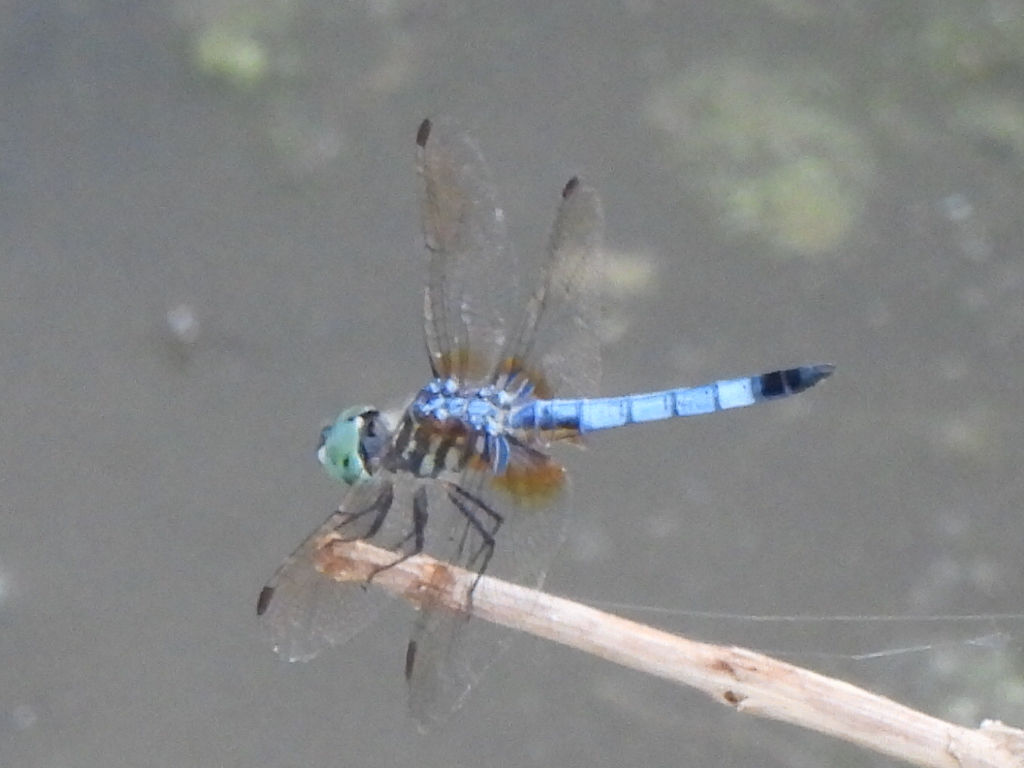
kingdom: Animalia
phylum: Arthropoda
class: Insecta
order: Odonata
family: Libellulidae
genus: Pachydiplax
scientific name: Pachydiplax longipennis
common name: Blue dasher
